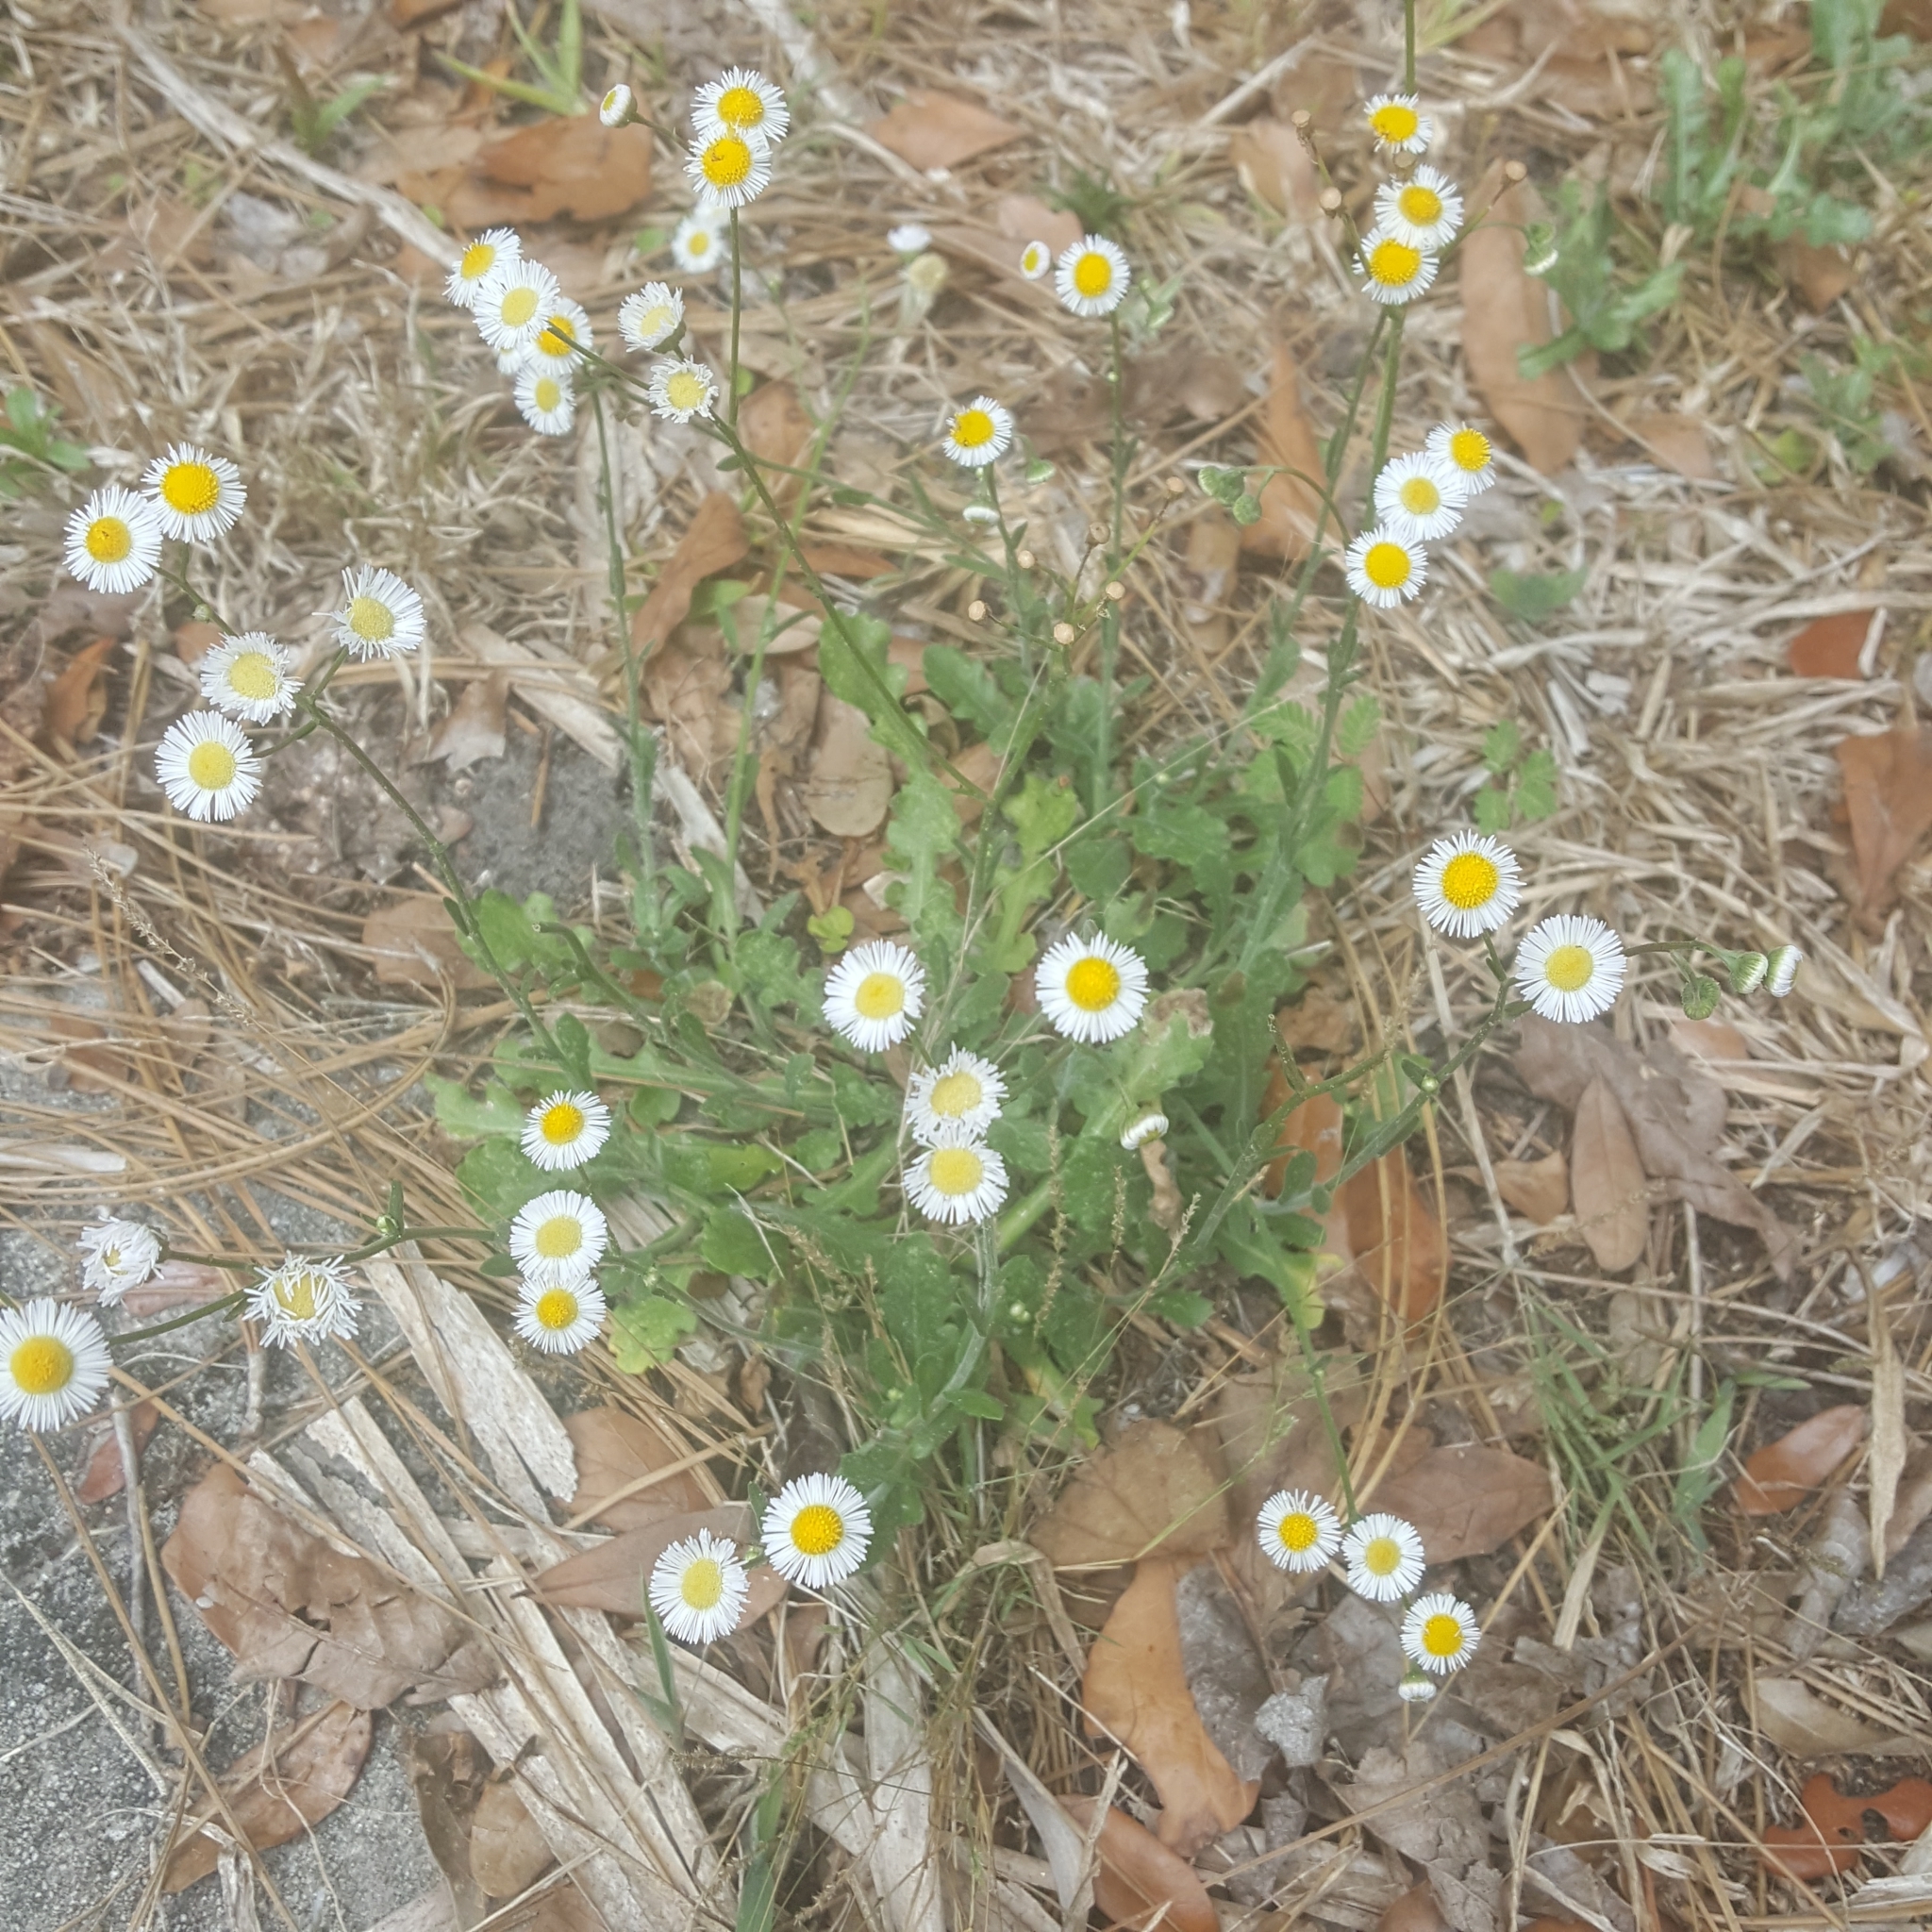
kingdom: Plantae
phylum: Tracheophyta
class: Magnoliopsida
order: Asterales
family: Asteraceae
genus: Erigeron
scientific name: Erigeron quercifolius
